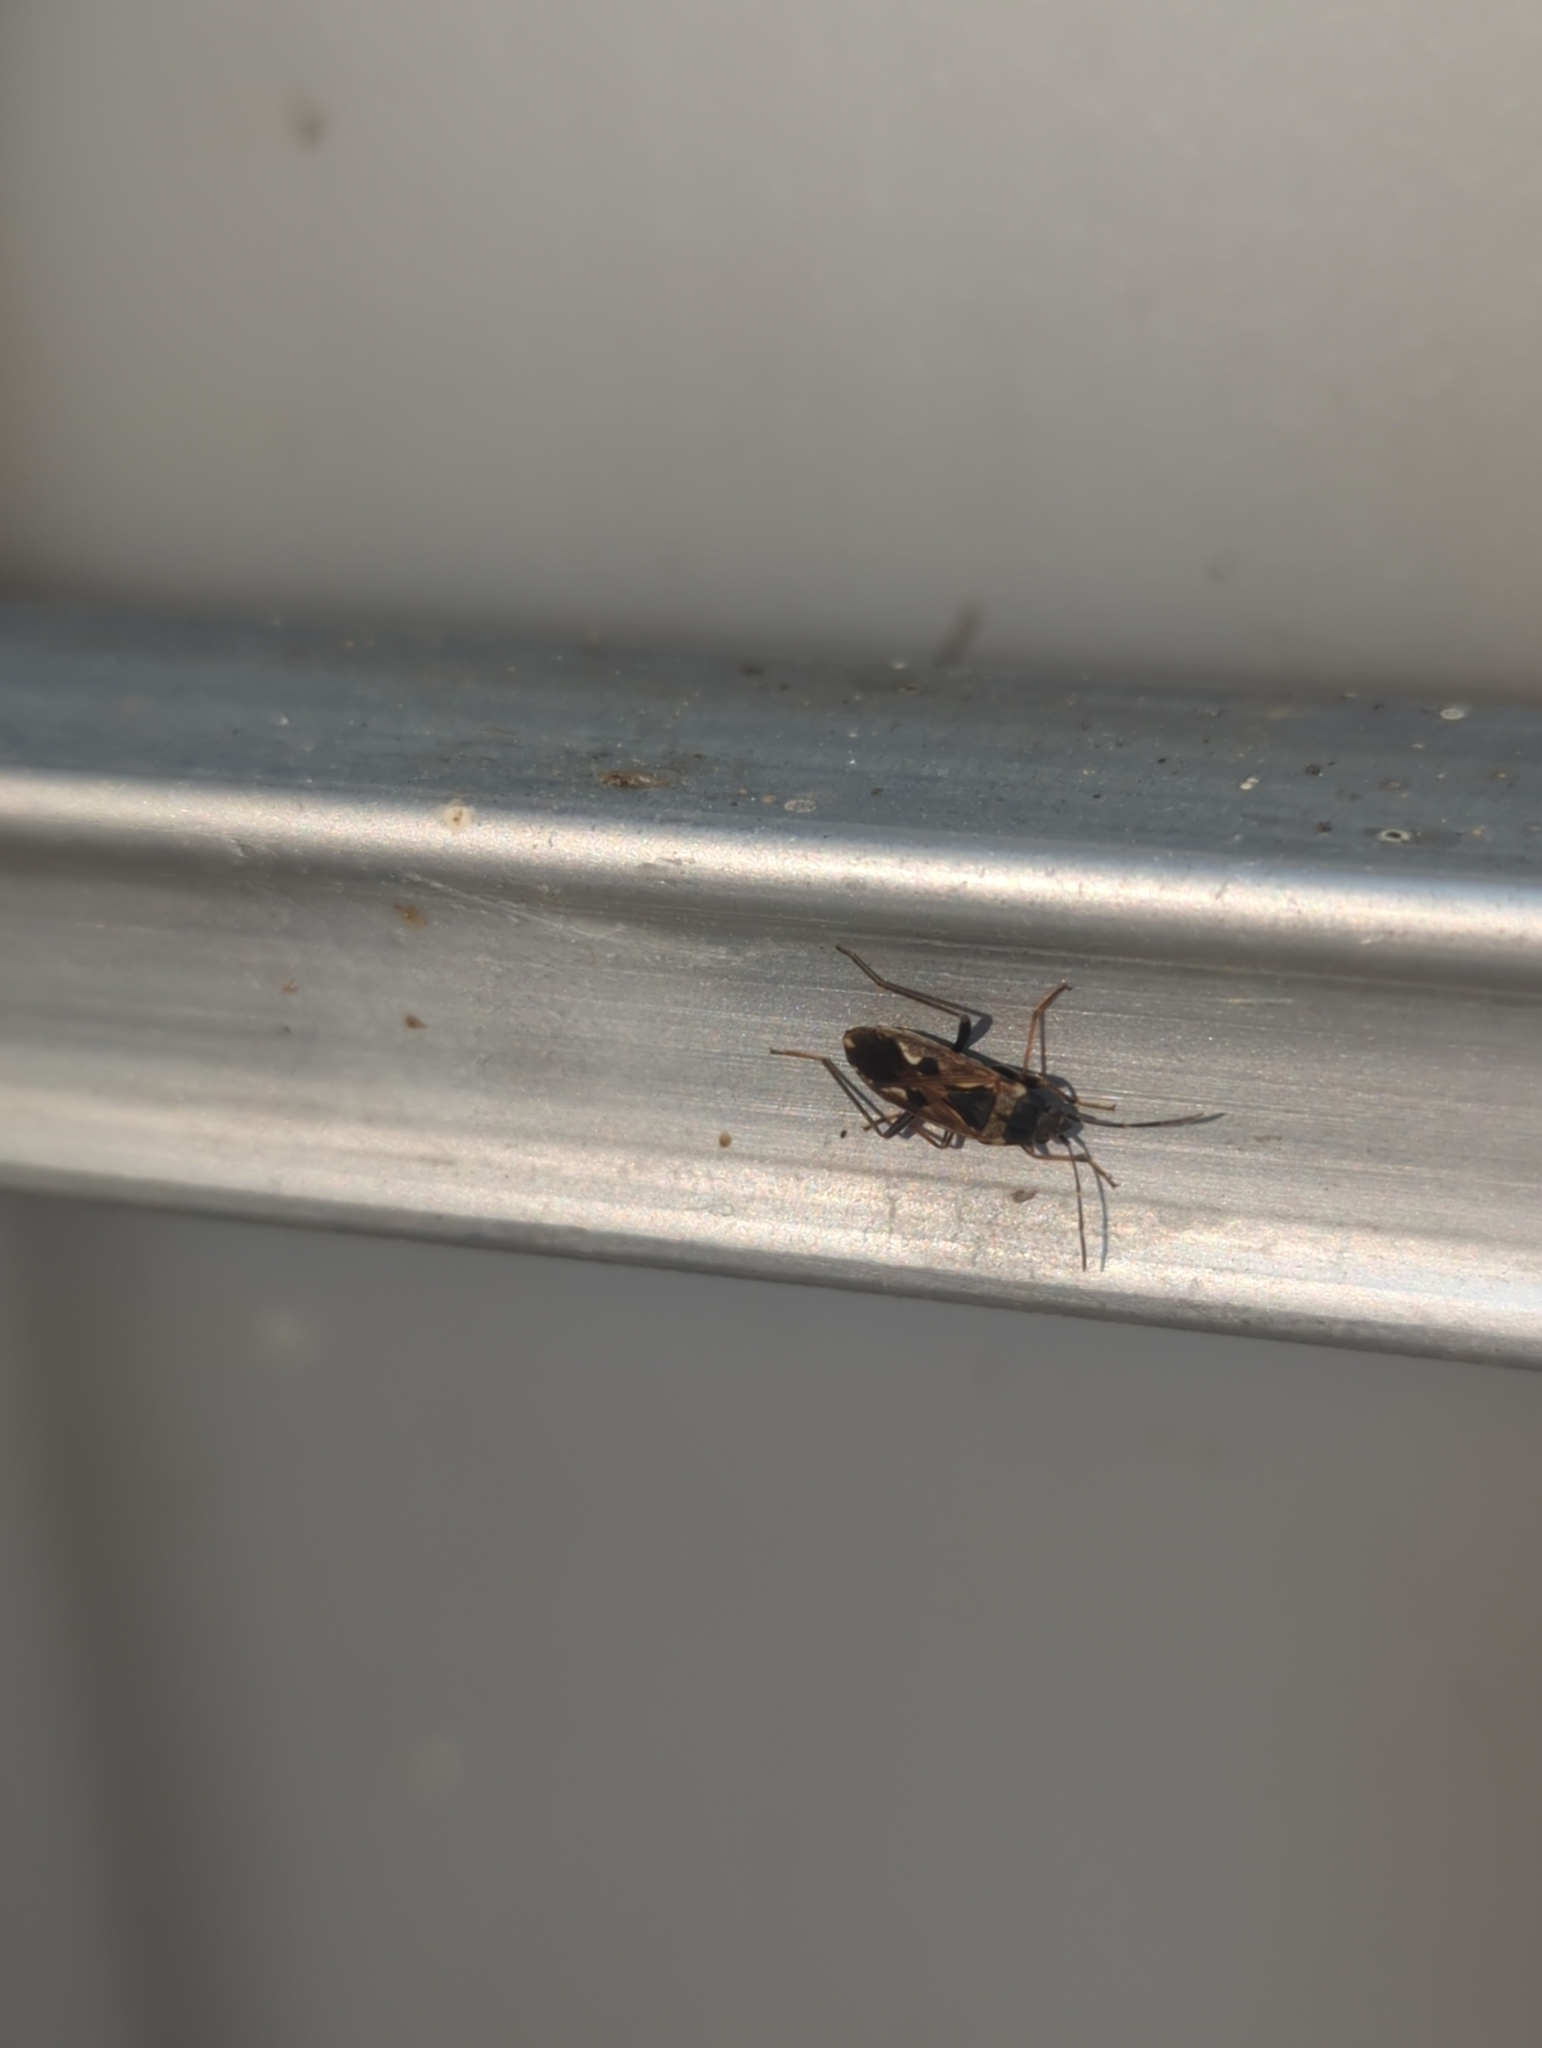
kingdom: Animalia
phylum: Arthropoda
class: Insecta
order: Hemiptera
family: Rhyparochromidae
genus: Rhyparochromus
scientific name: Rhyparochromus vulgaris
